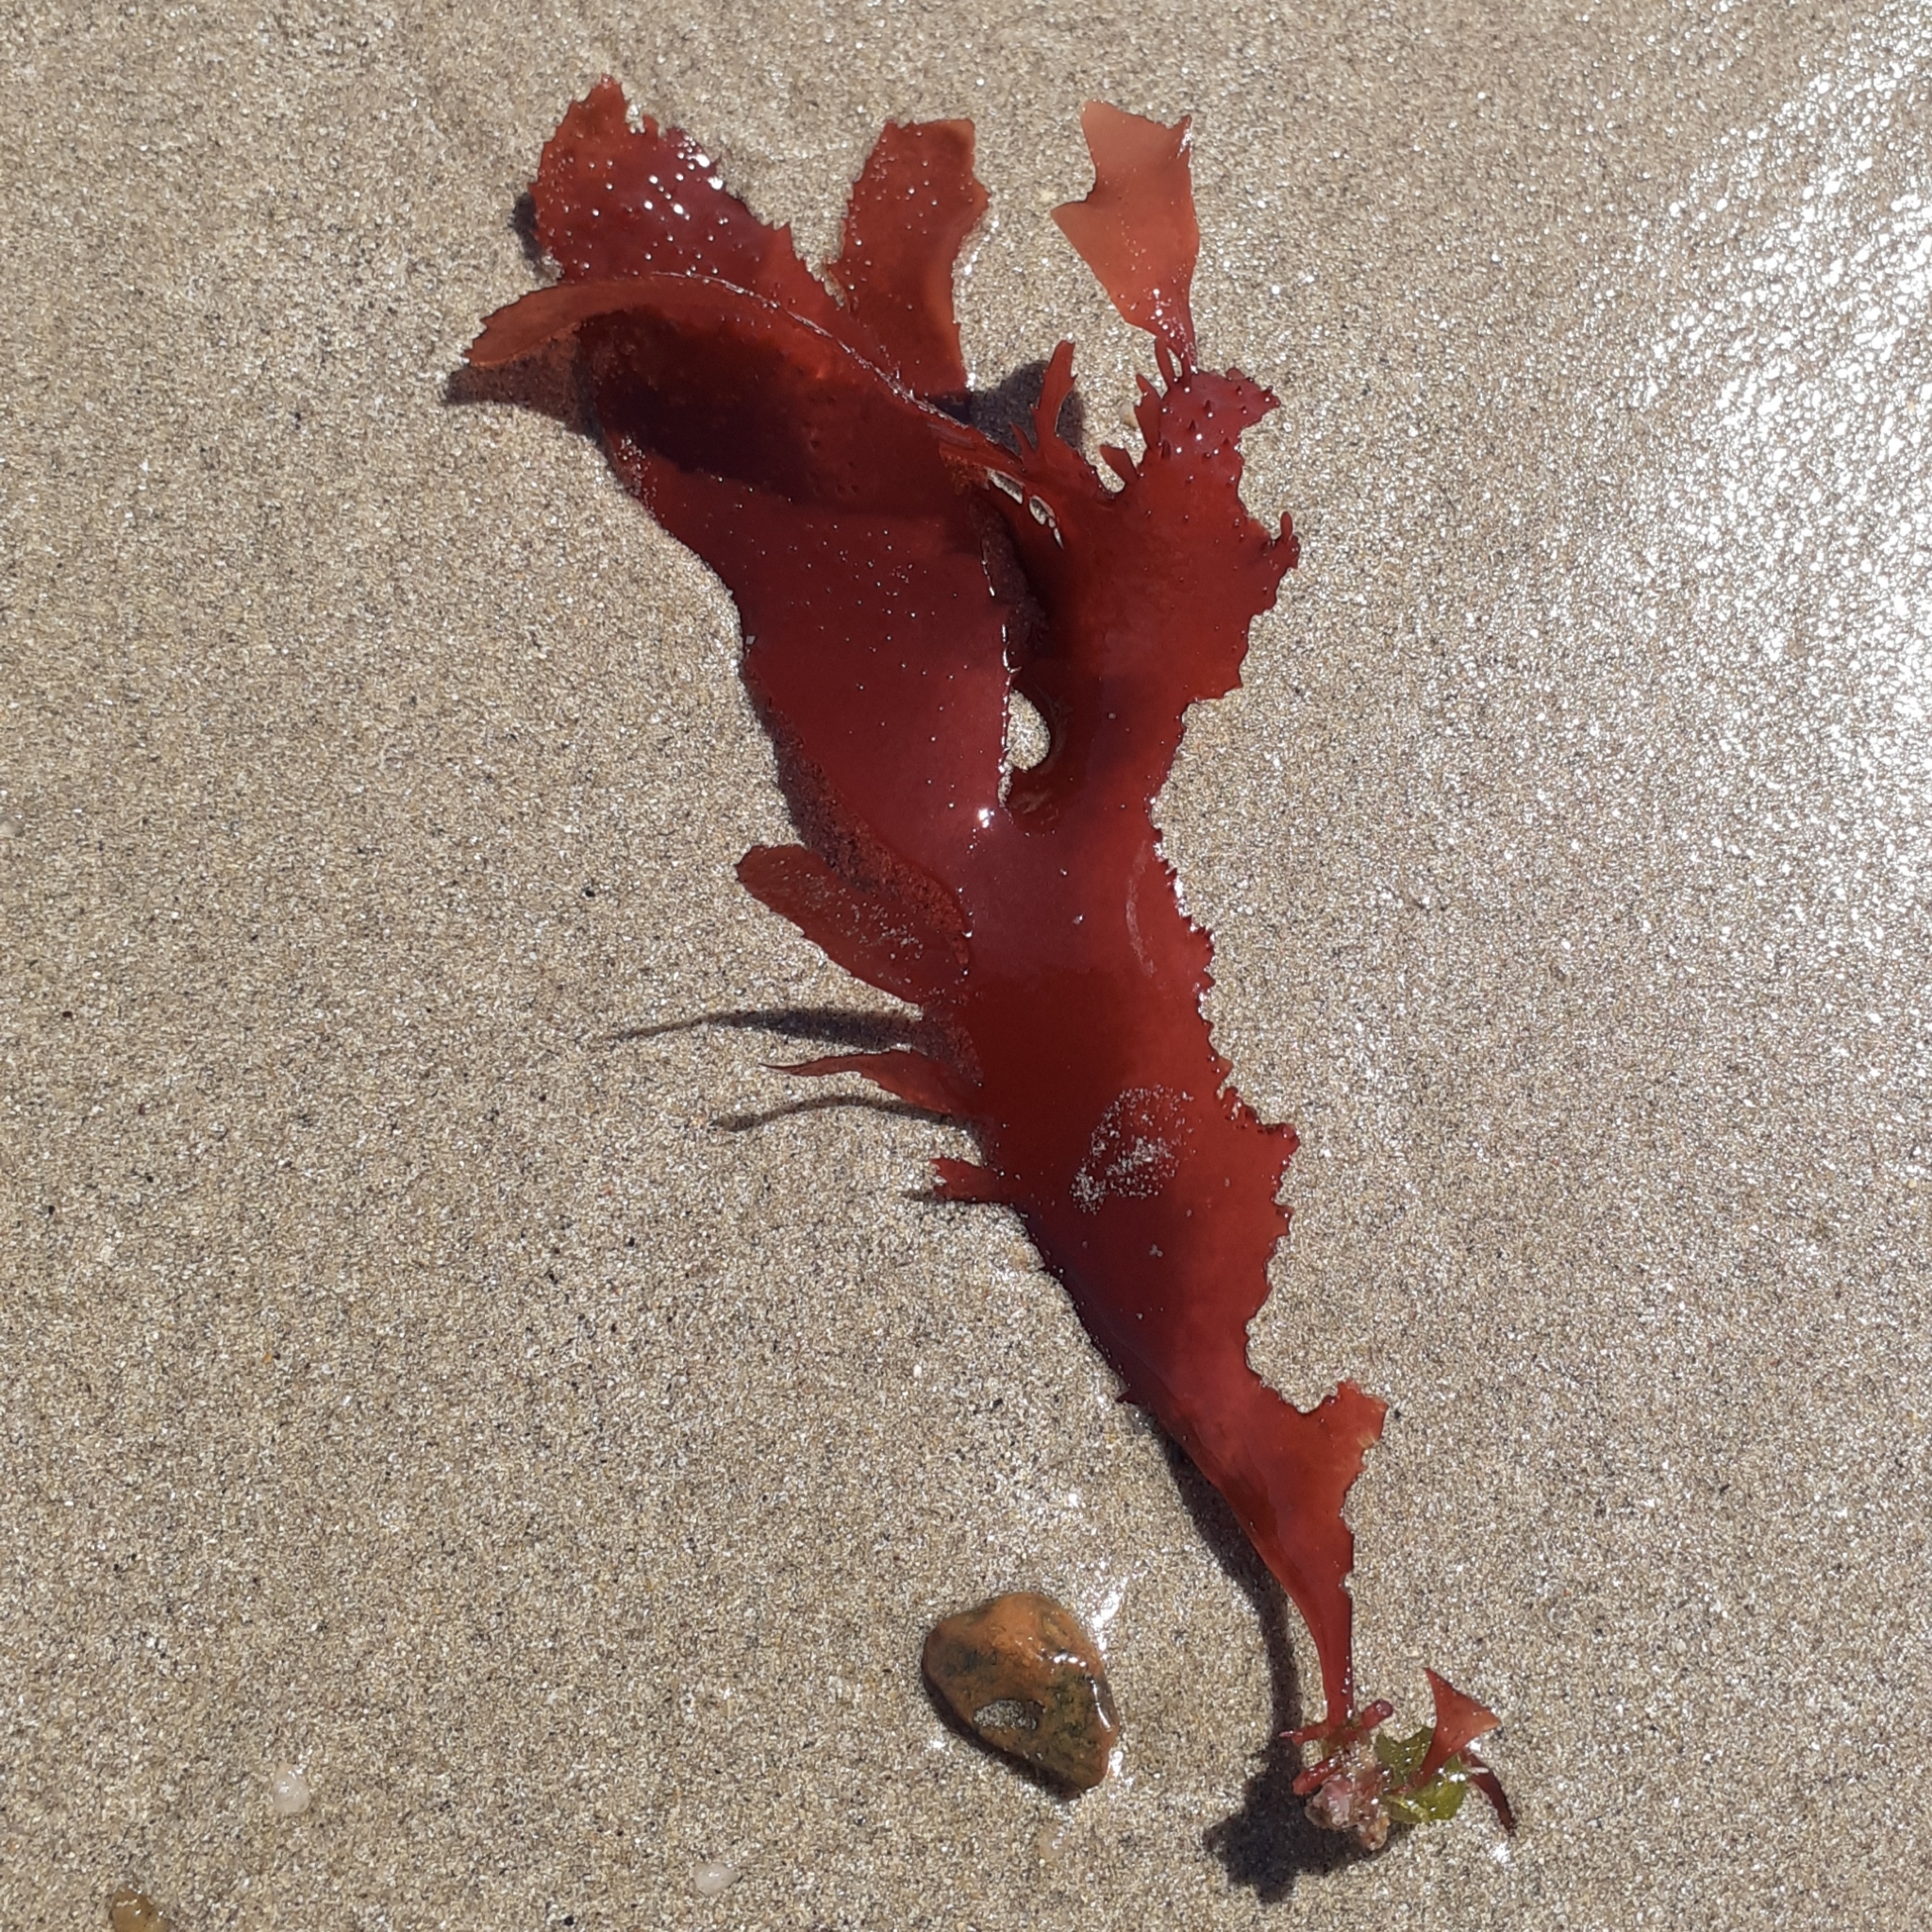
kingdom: Plantae
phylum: Rhodophyta
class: Florideophyceae
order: Gigartinales
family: Cystocloniaceae
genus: Calliblepharis
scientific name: Calliblepharis ciliata
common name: Eyelash weed
